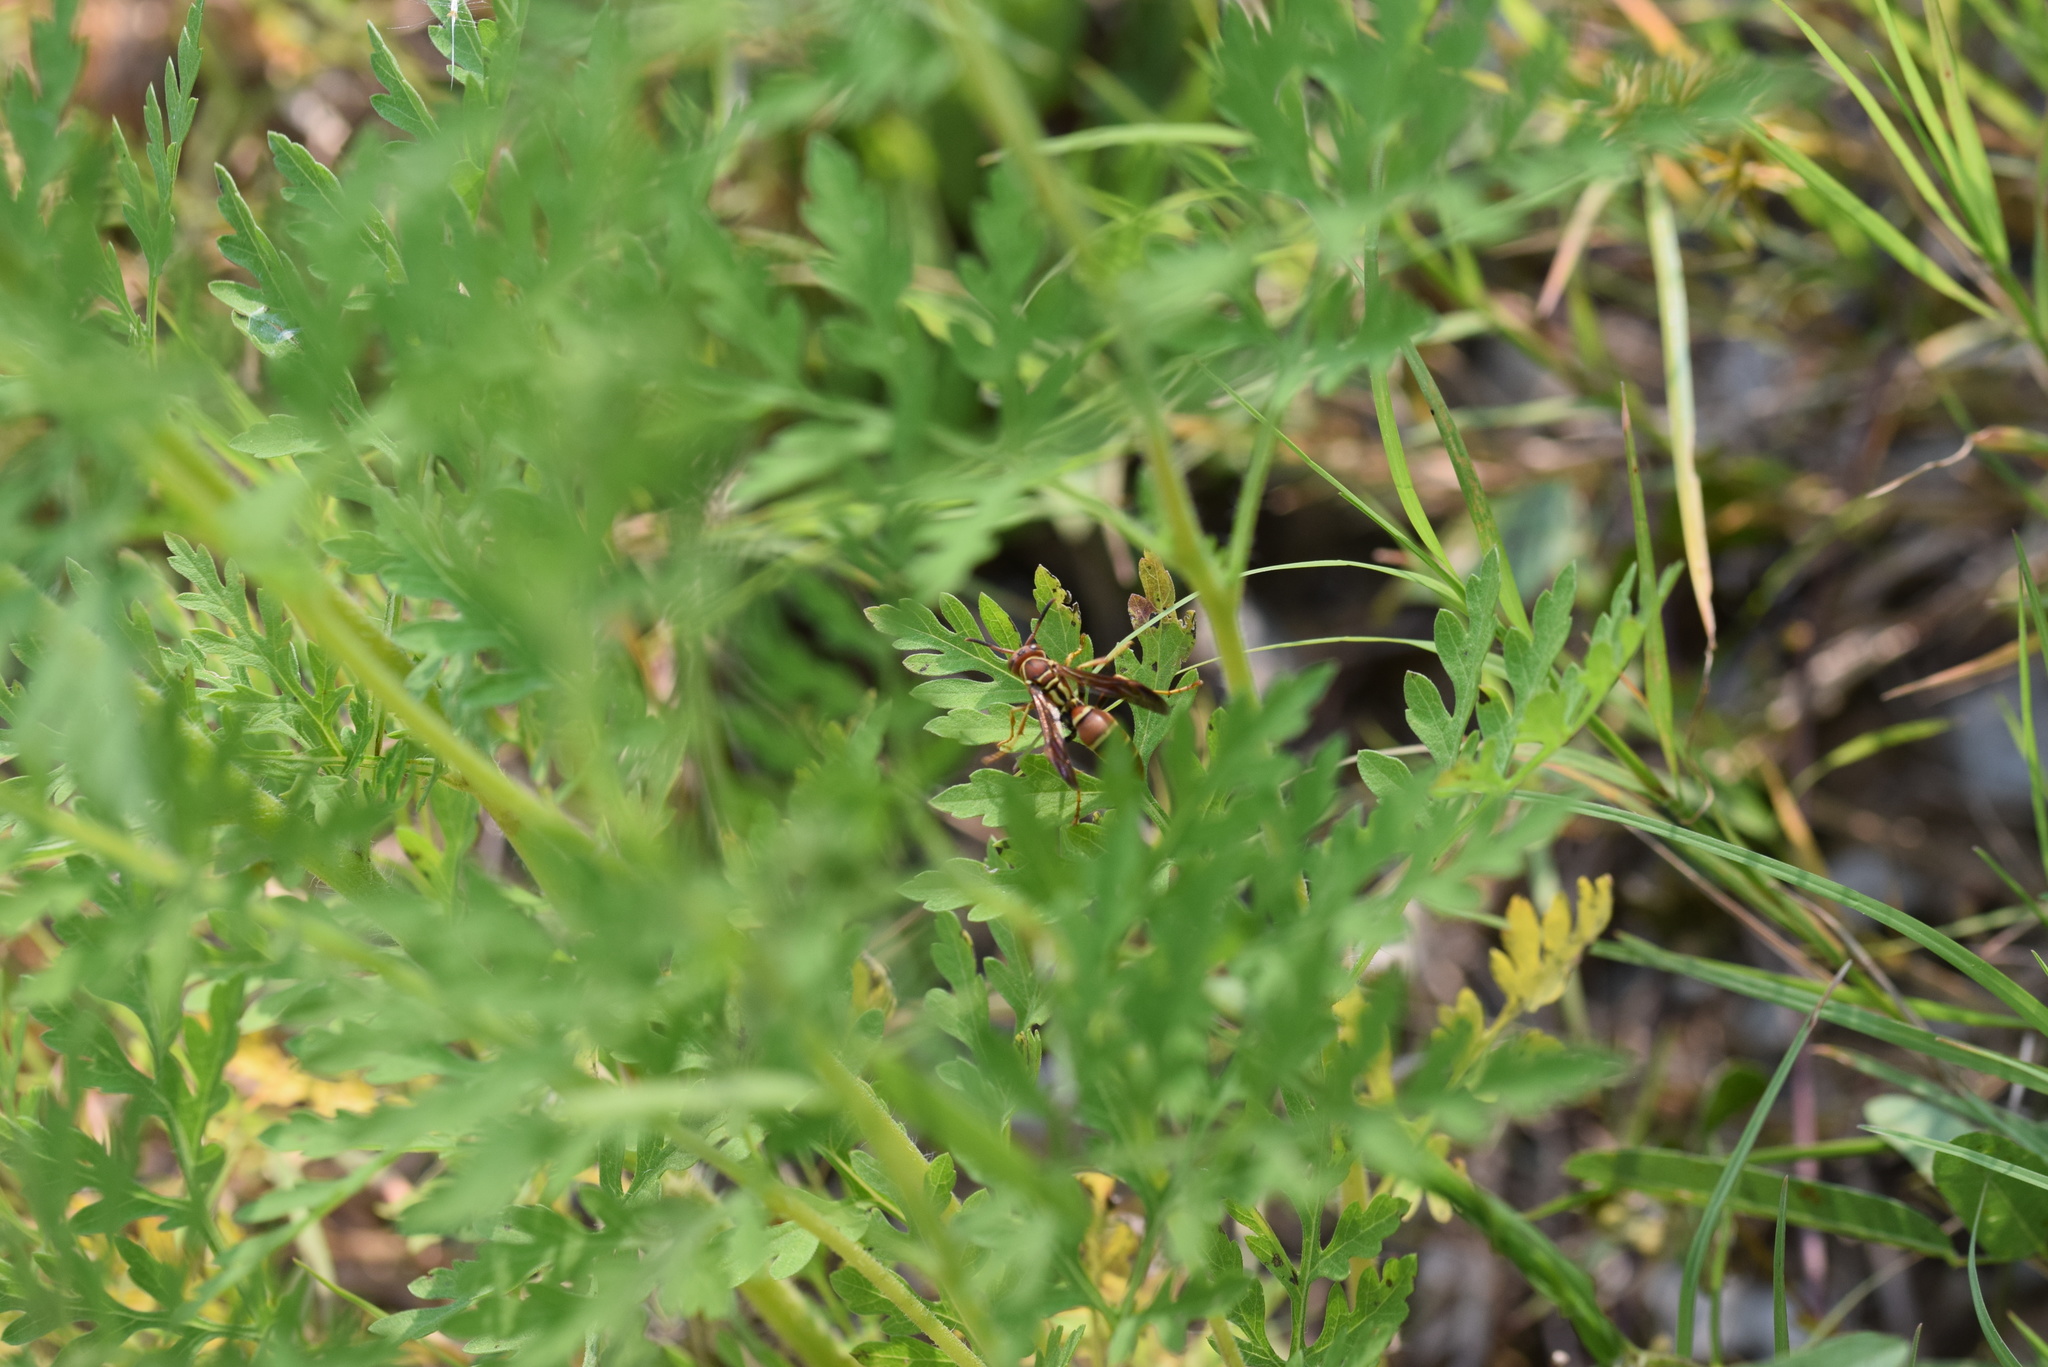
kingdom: Animalia
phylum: Arthropoda
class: Insecta
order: Hymenoptera
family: Eumenidae
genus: Polistes
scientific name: Polistes dorsalis
